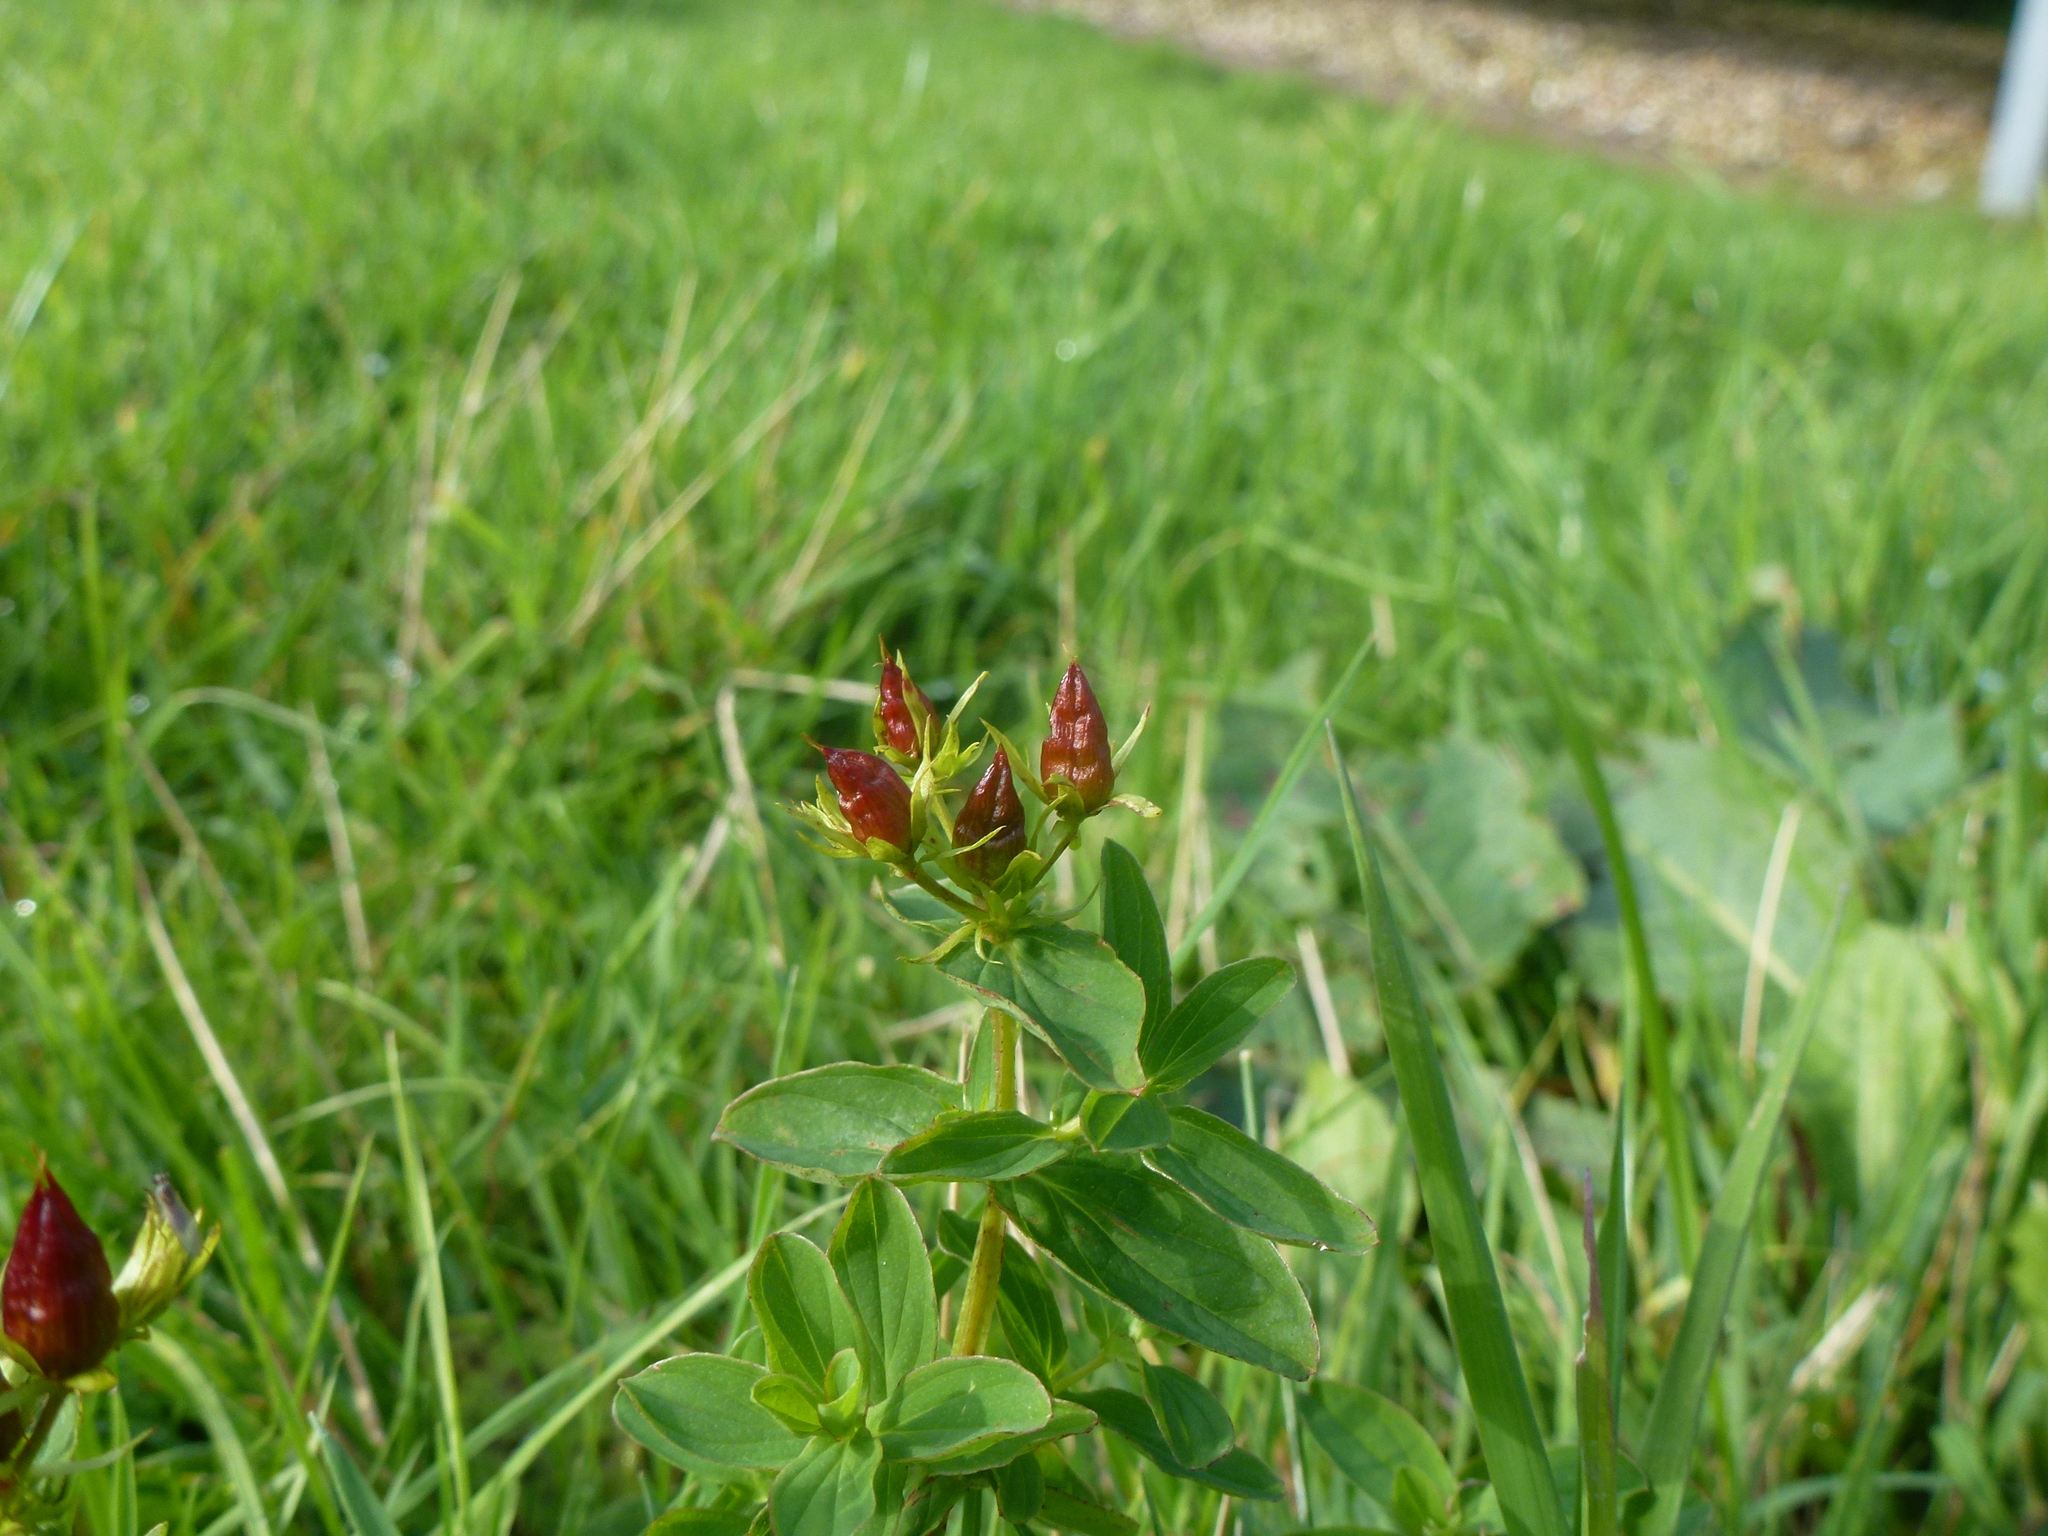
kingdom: Plantae
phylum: Tracheophyta
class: Magnoliopsida
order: Malpighiales
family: Hypericaceae
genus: Hypericum
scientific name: Hypericum tetrapterum
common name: Square-stalked st. john's-wort
